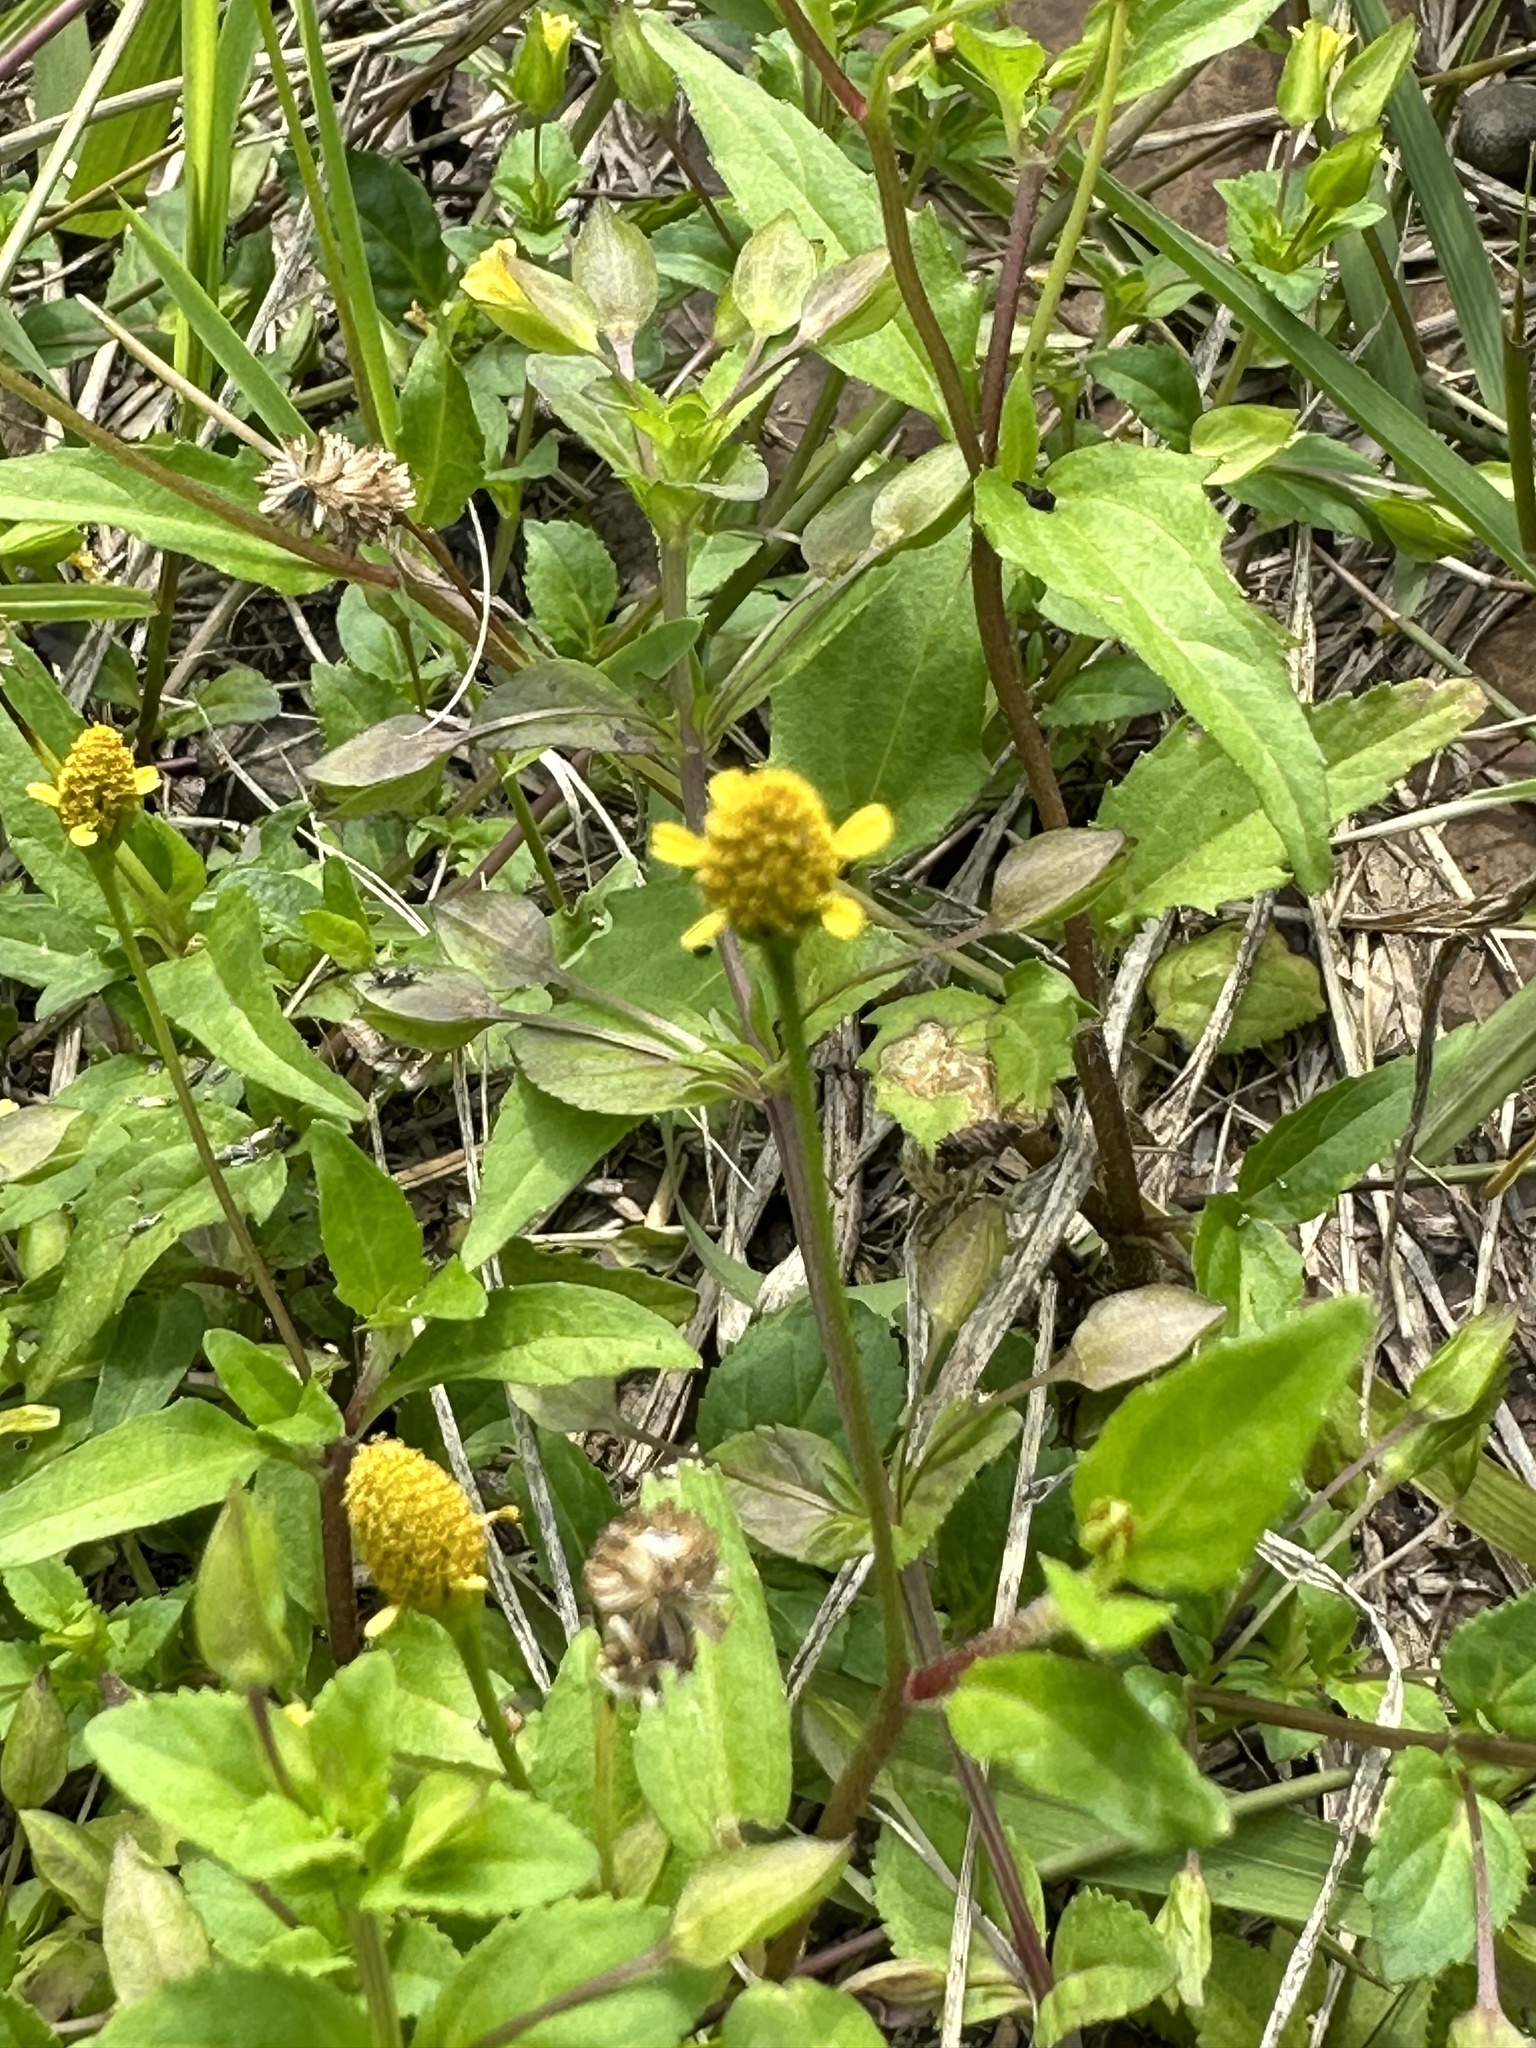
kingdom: Plantae
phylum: Tracheophyta
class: Magnoliopsida
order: Asterales
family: Asteraceae
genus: Acmella
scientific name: Acmella uliginosa
